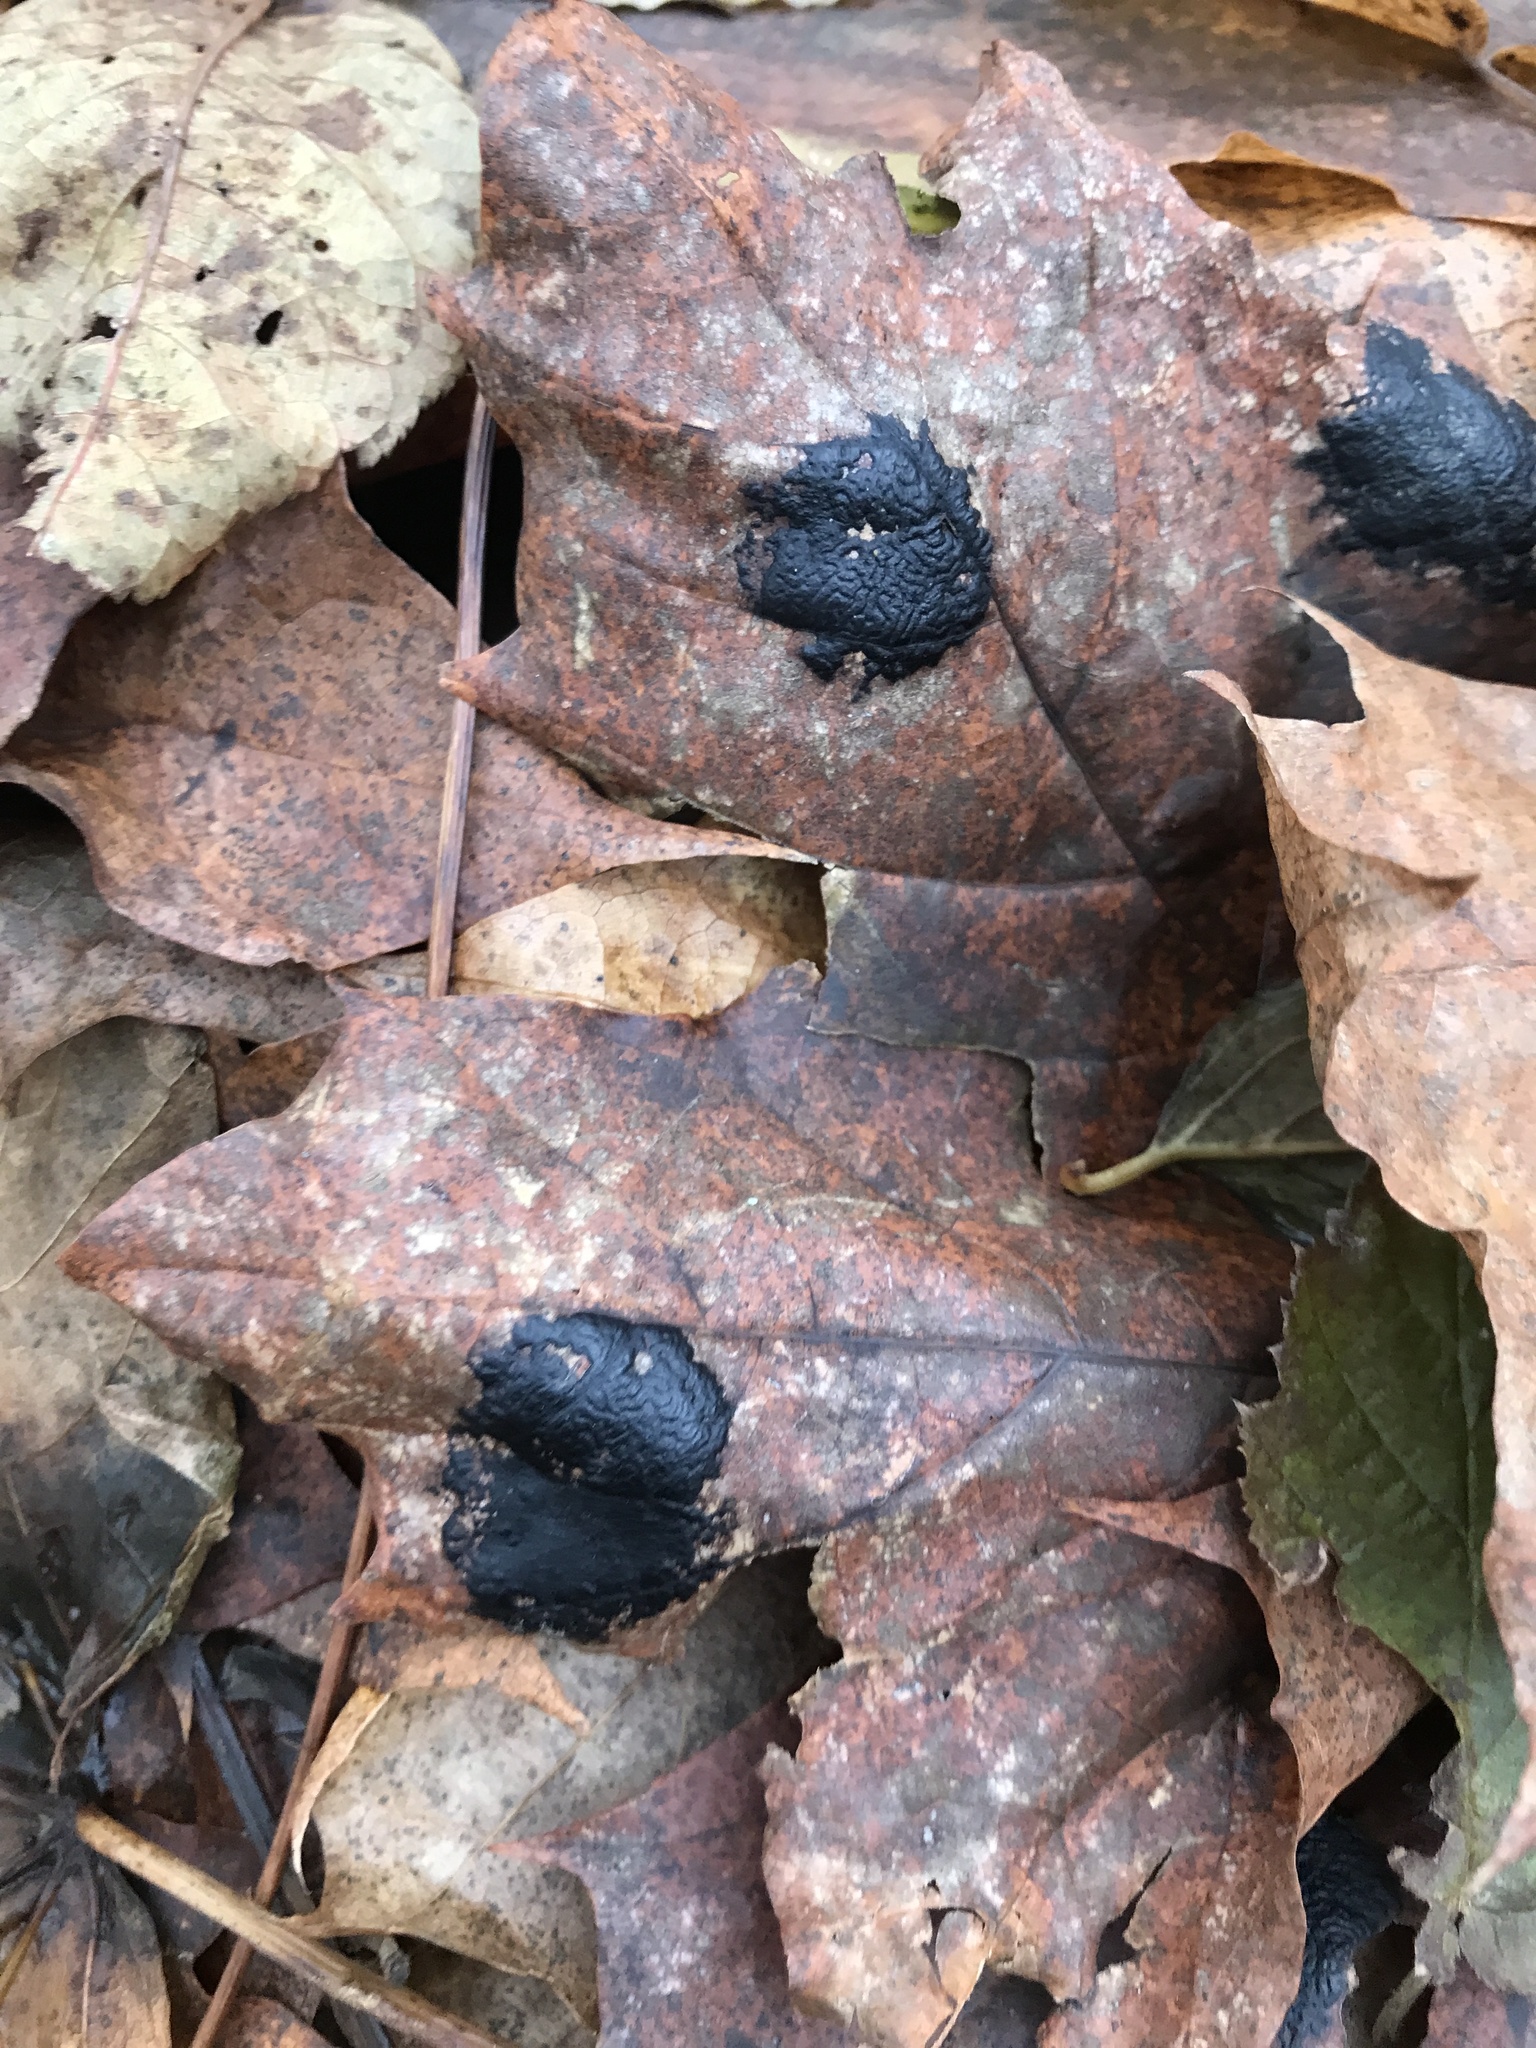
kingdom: Fungi
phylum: Ascomycota
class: Leotiomycetes
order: Rhytismatales
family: Rhytismataceae
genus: Rhytisma
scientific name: Rhytisma acerinum
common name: European tar spot
